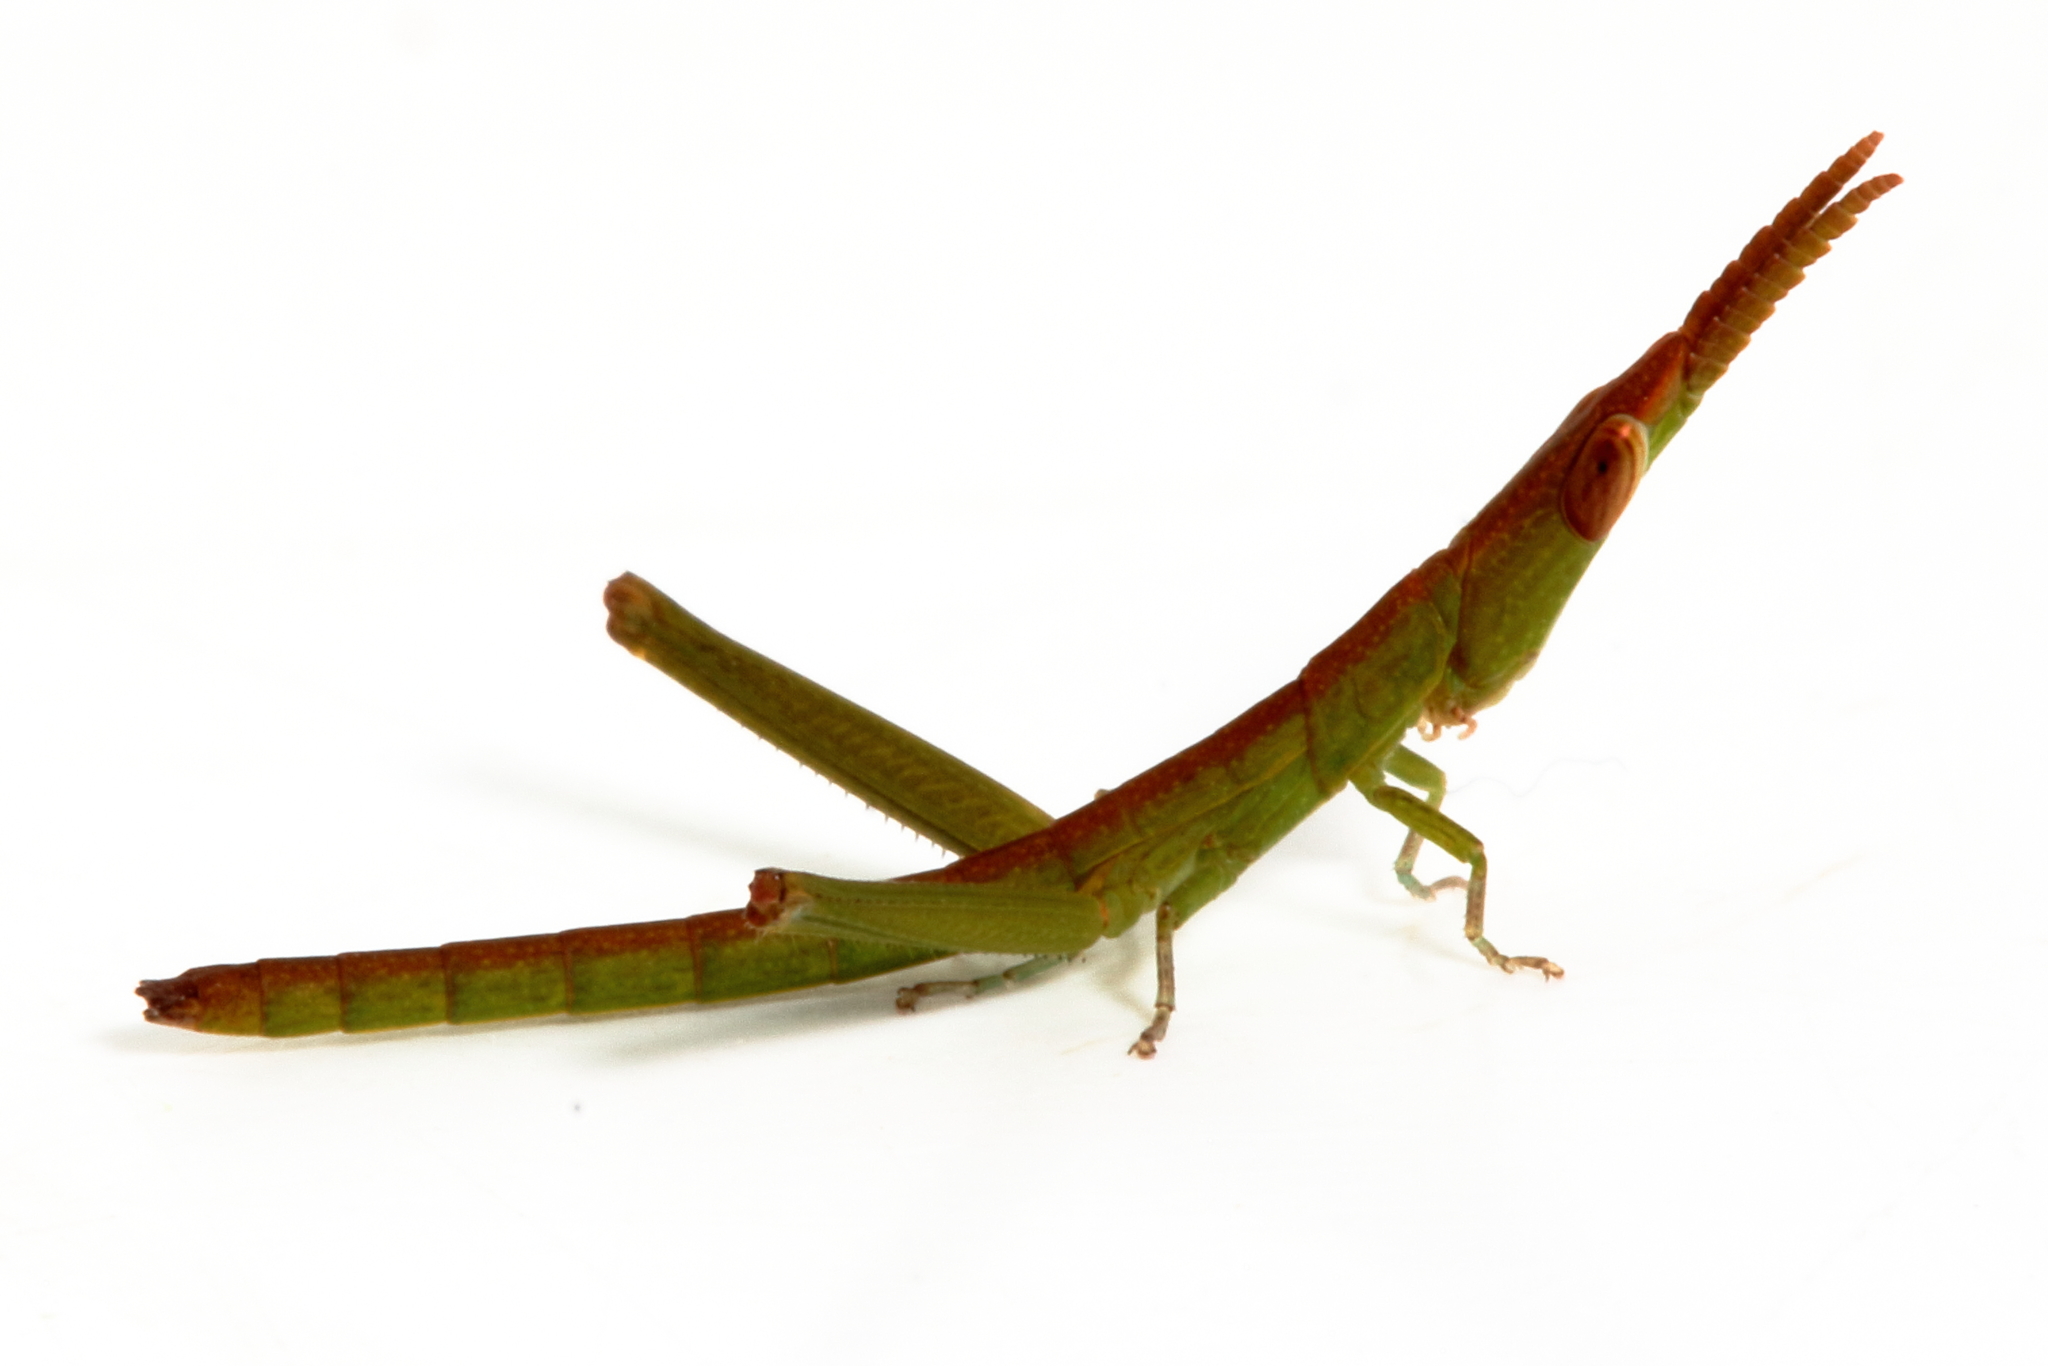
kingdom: Animalia
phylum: Arthropoda
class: Insecta
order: Orthoptera
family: Morabidae
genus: Warramaba
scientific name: Warramaba virgo
